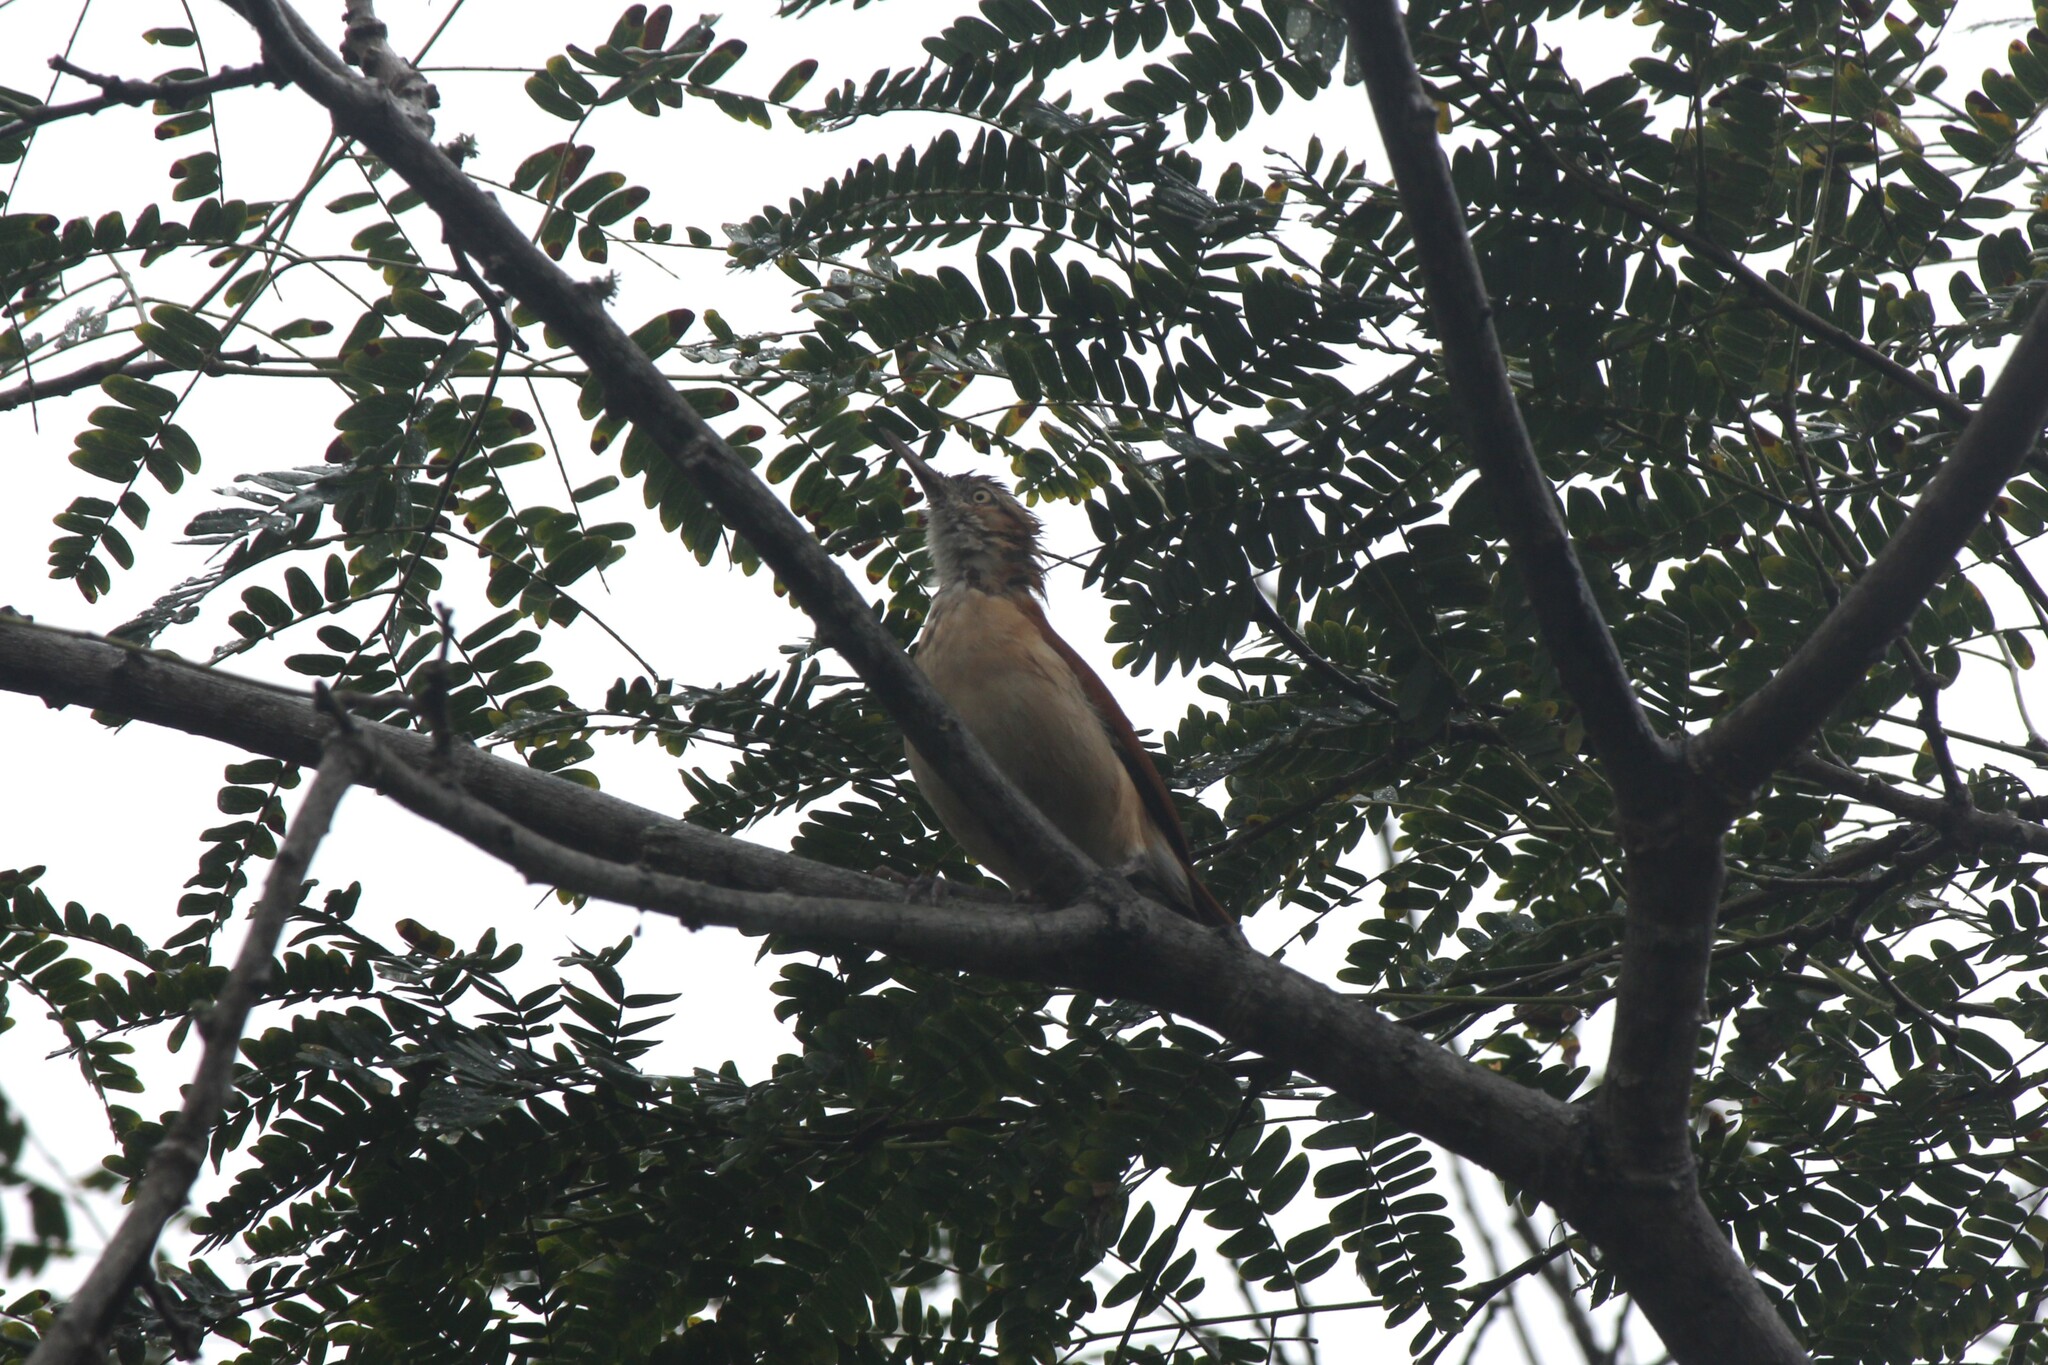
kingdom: Animalia
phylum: Chordata
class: Aves
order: Passeriformes
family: Furnariidae
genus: Furnarius
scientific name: Furnarius leucopus
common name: Pale-legged hornero
